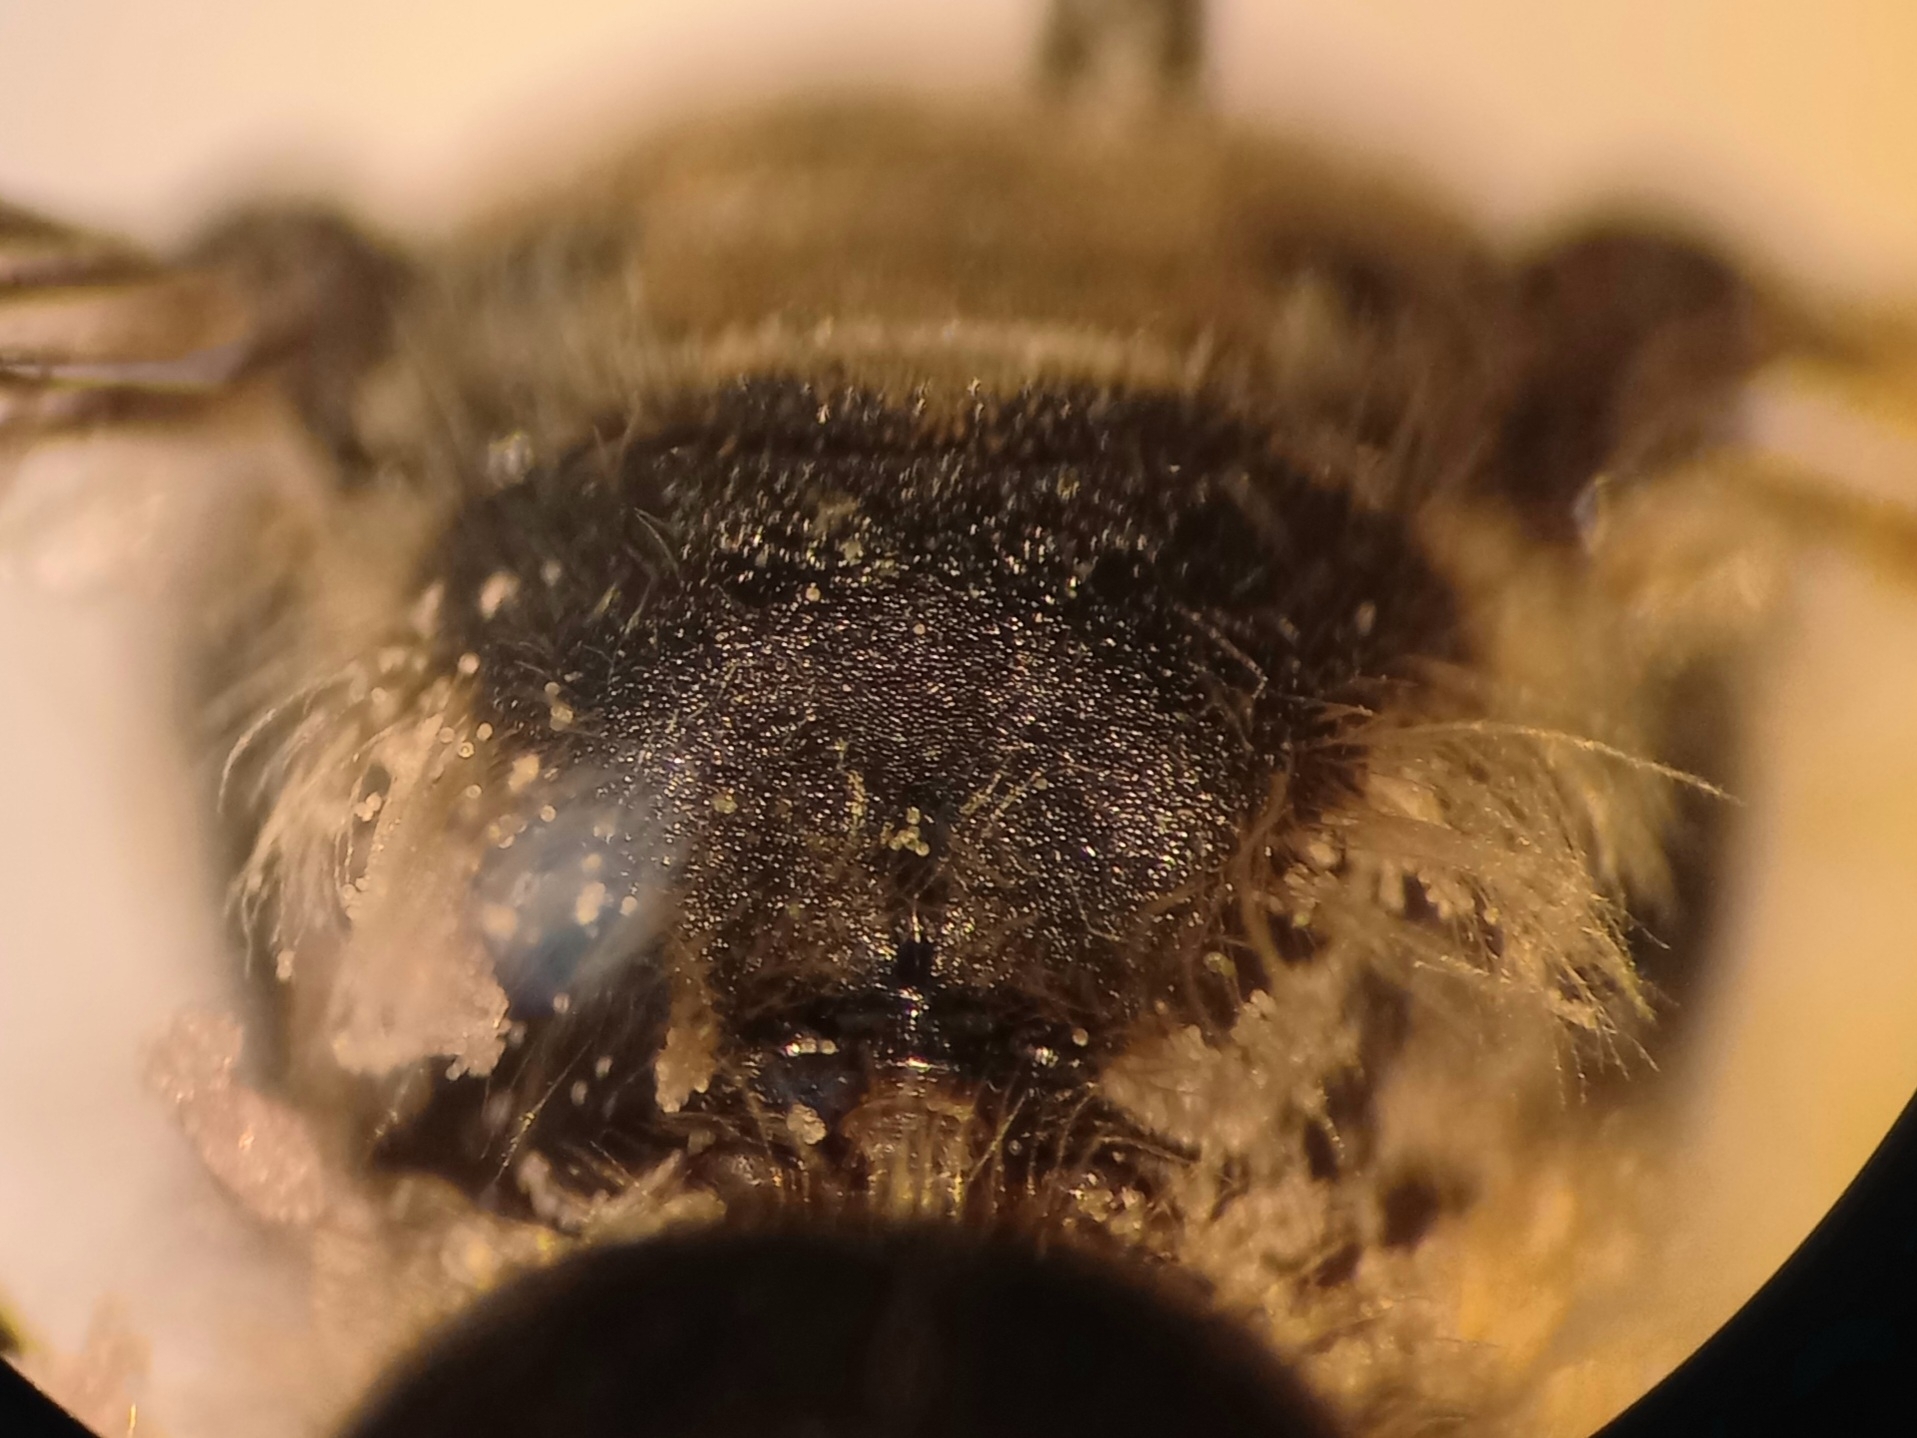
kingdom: Animalia
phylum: Arthropoda
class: Insecta
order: Hymenoptera
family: Andrenidae
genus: Andrena
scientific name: Andrena pandellei
